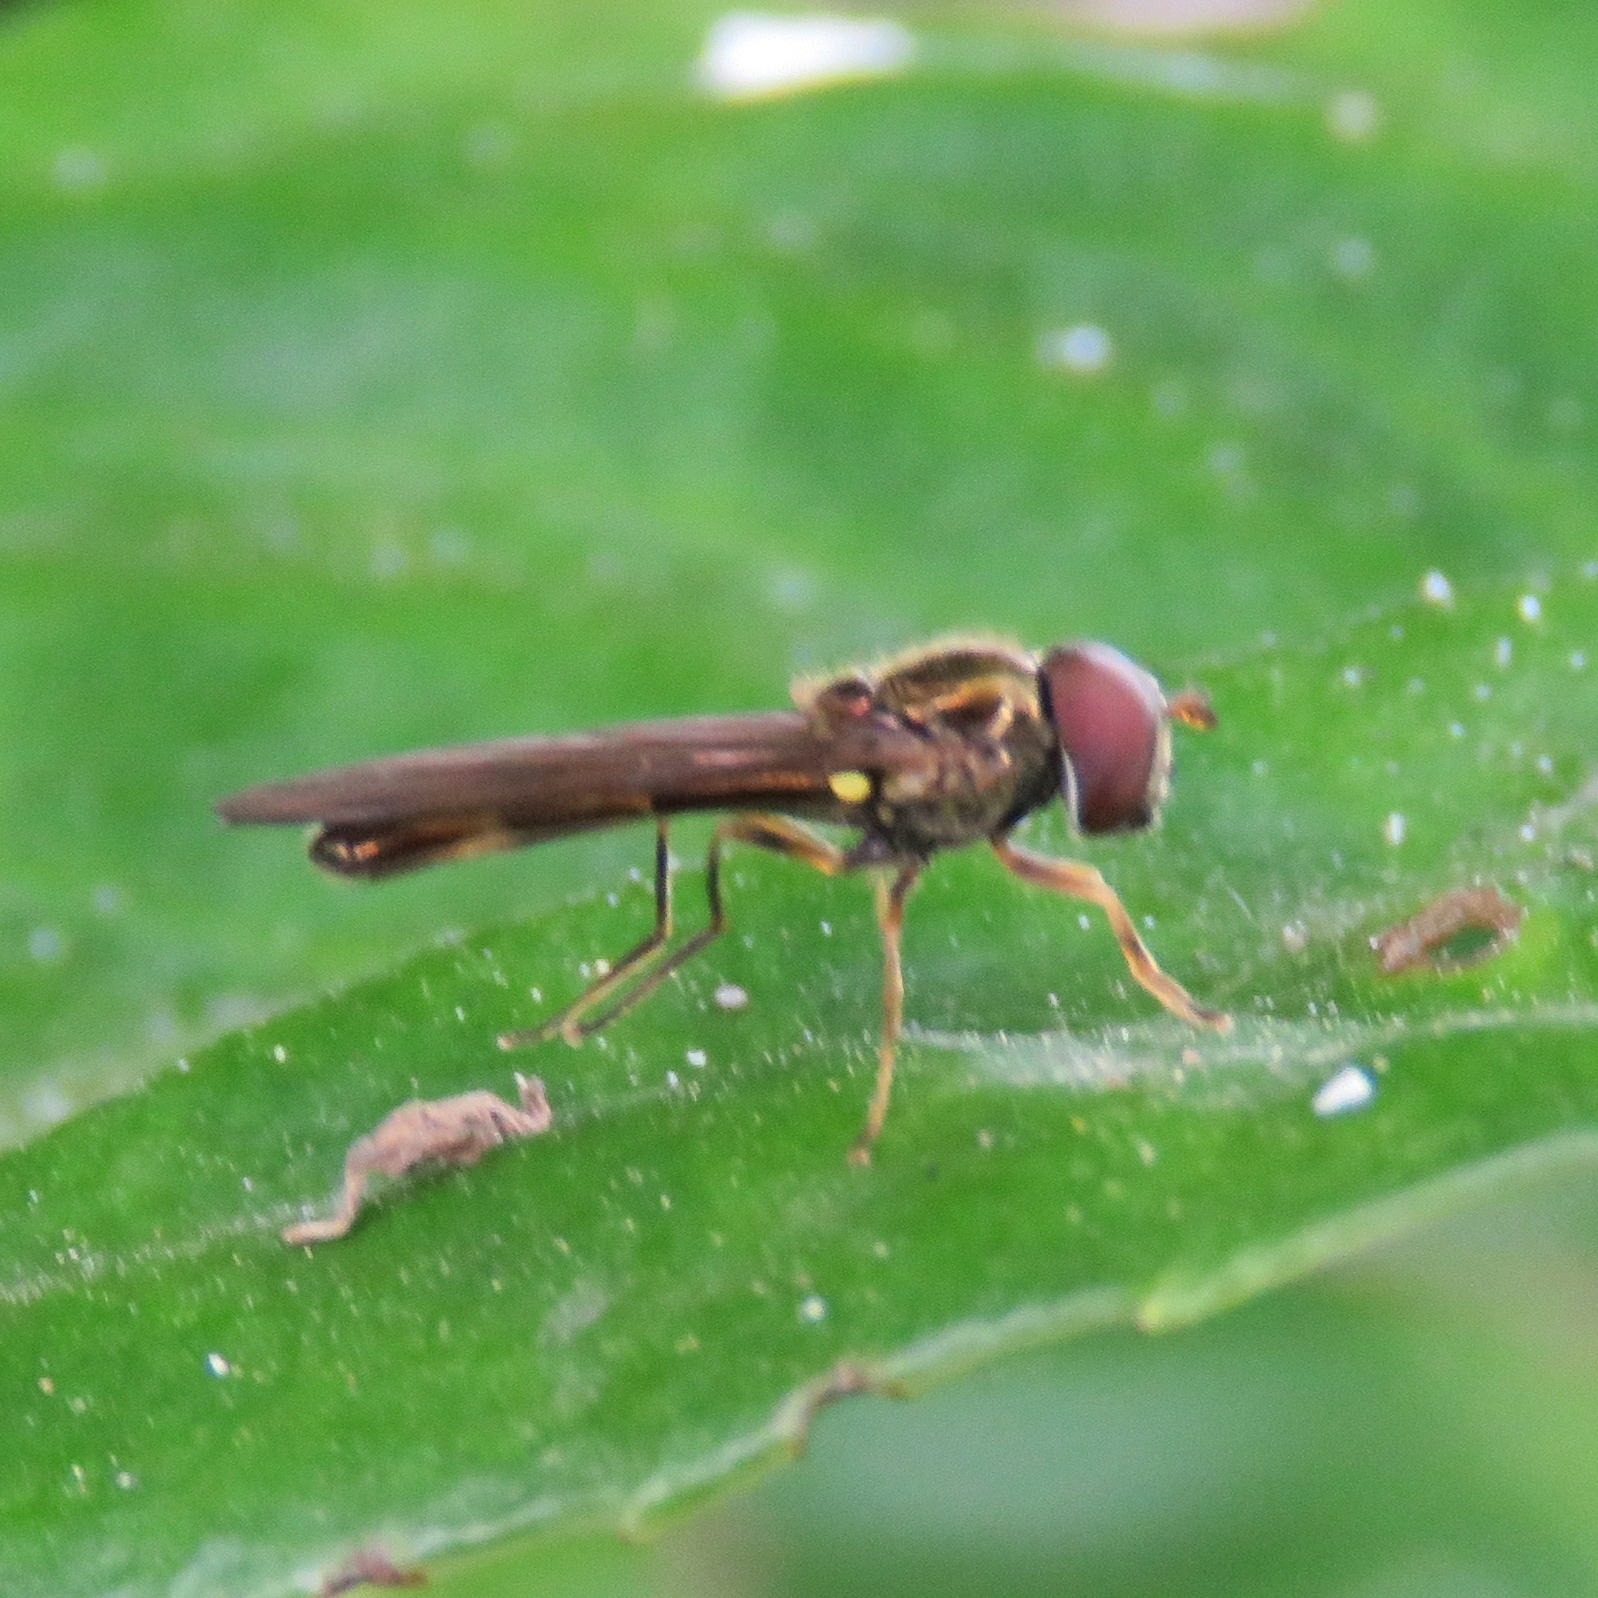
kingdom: Animalia
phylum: Arthropoda
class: Insecta
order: Diptera
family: Syrphidae
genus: Melanostoma
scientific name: Melanostoma scalare
